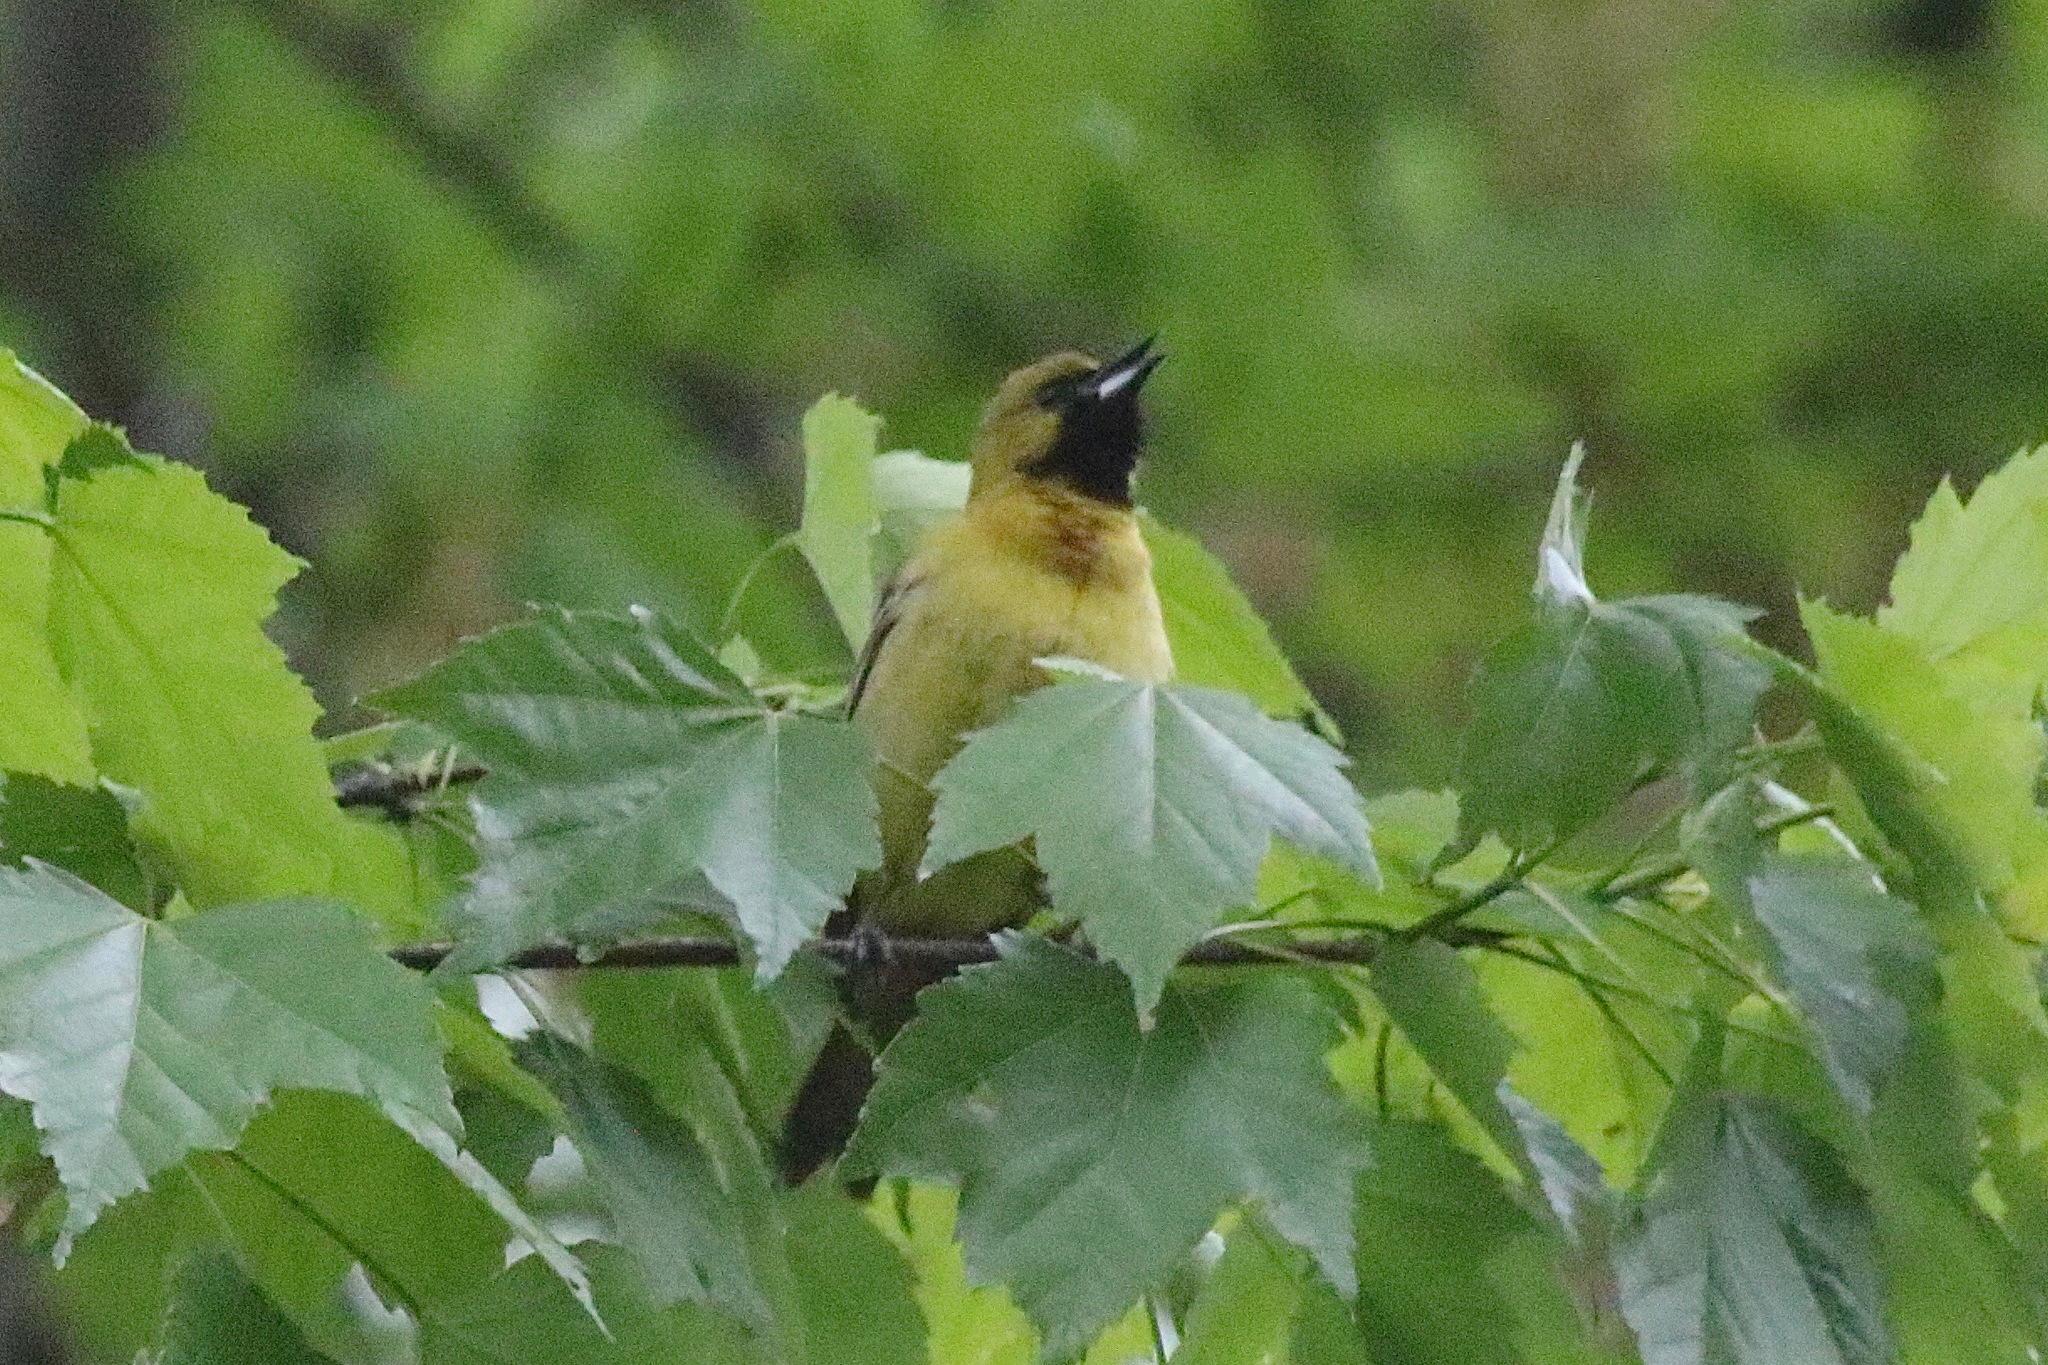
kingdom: Animalia
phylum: Chordata
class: Aves
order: Passeriformes
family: Icteridae
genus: Icterus
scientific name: Icterus spurius
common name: Orchard oriole
